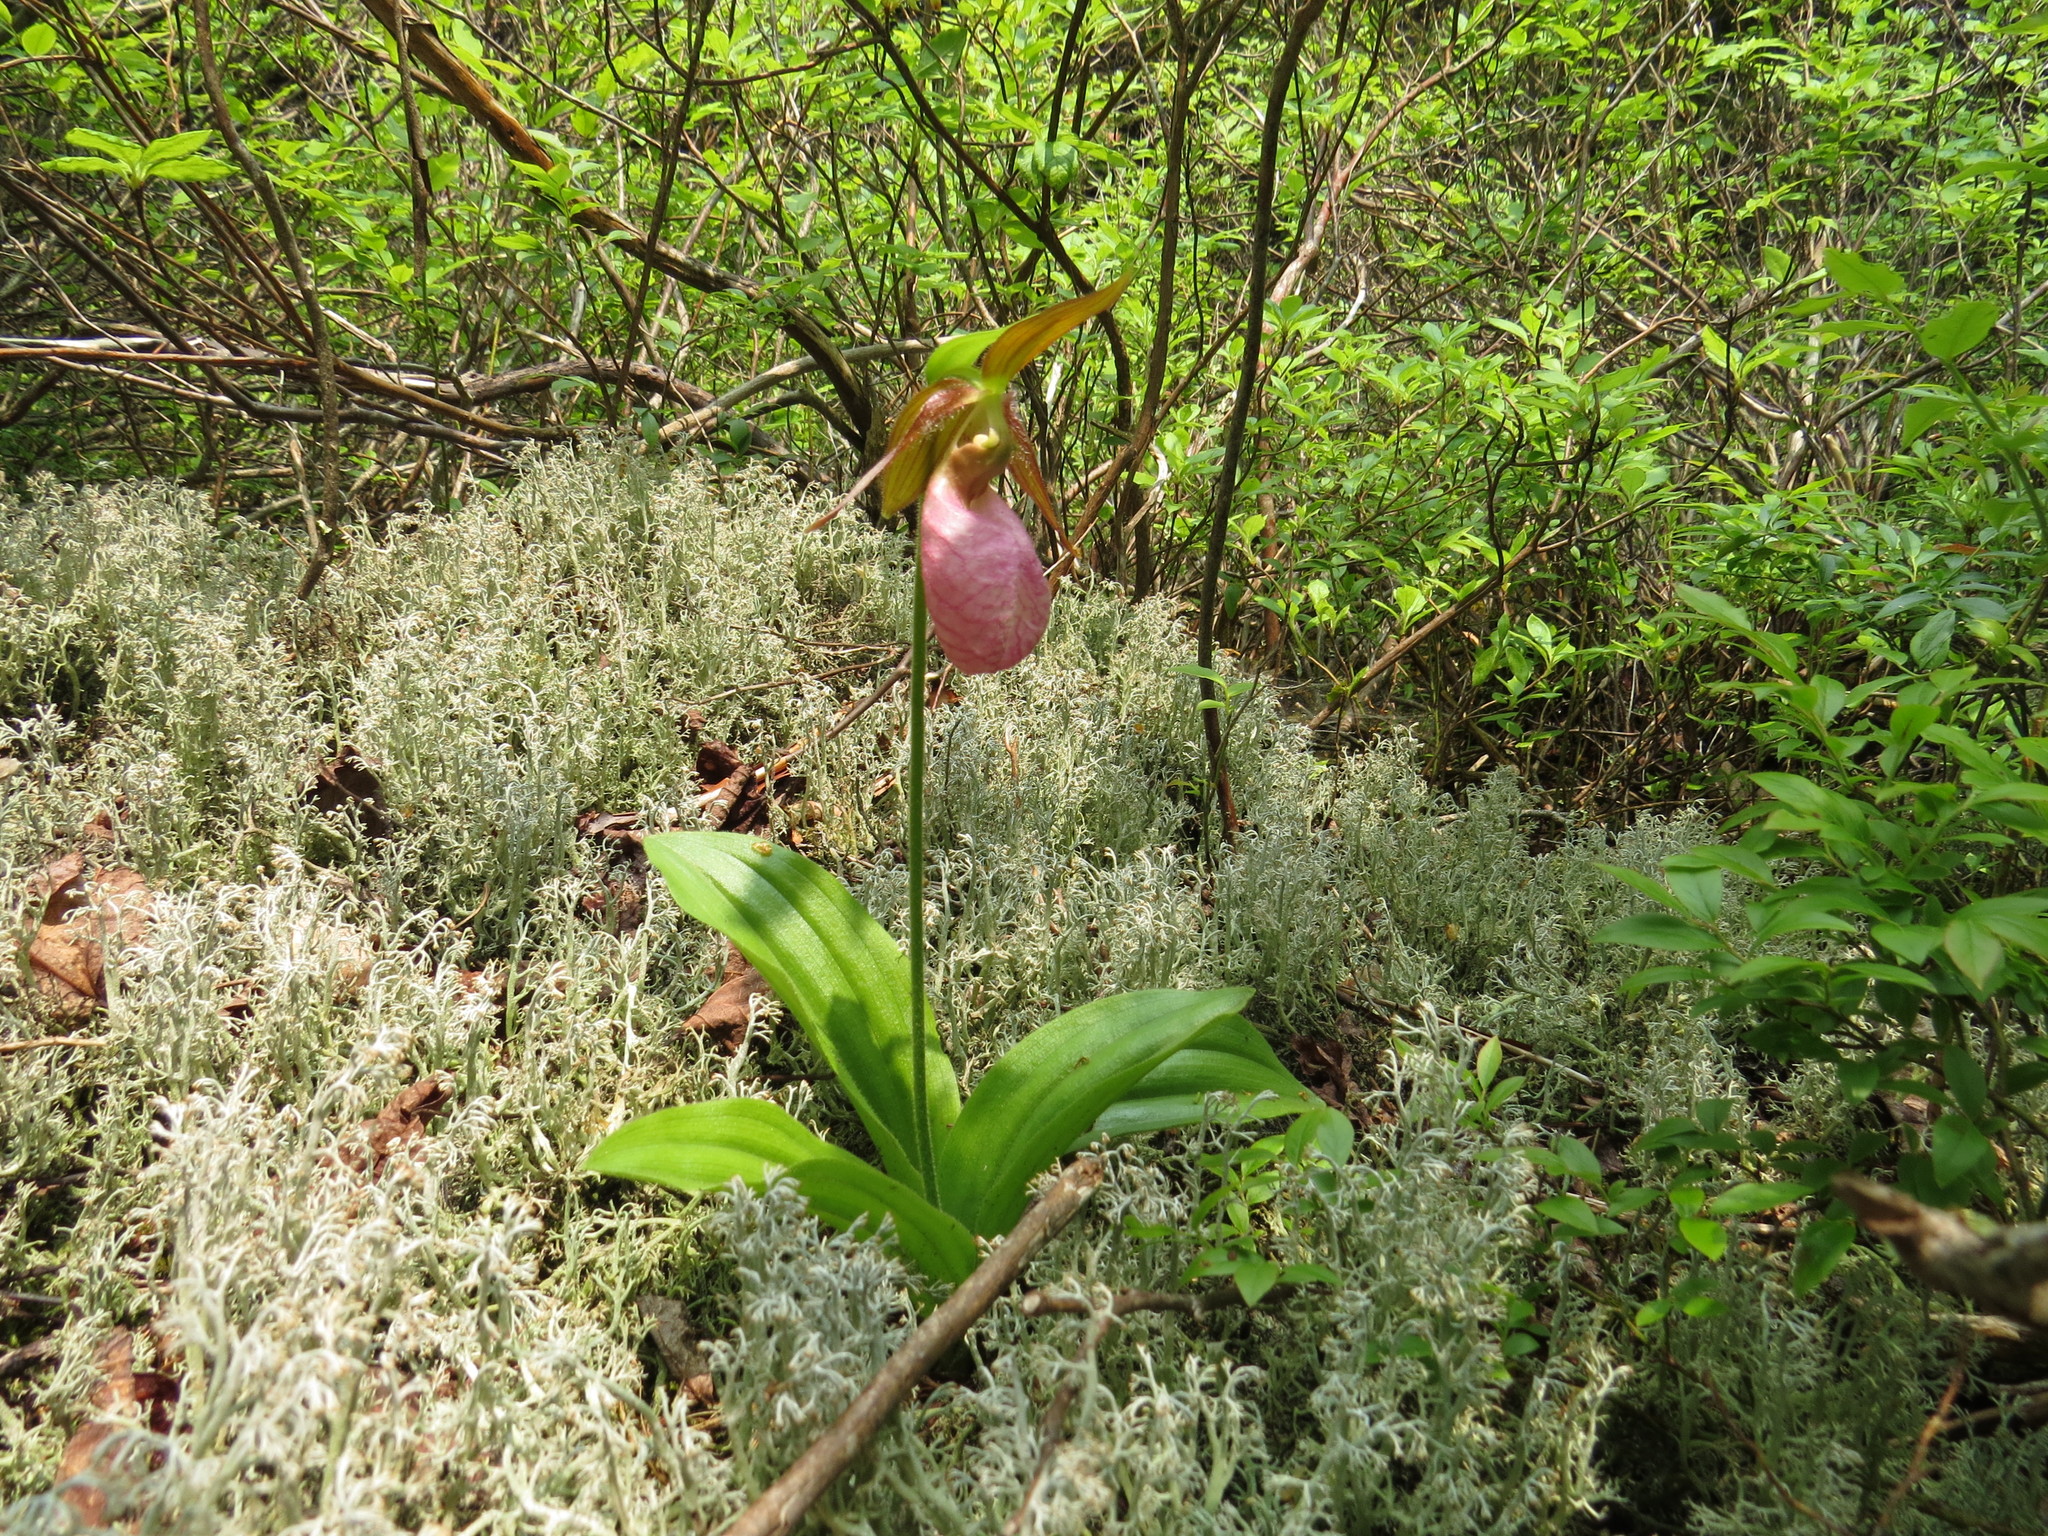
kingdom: Plantae
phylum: Tracheophyta
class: Liliopsida
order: Asparagales
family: Orchidaceae
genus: Cypripedium
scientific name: Cypripedium acaule
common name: Pink lady's-slipper
